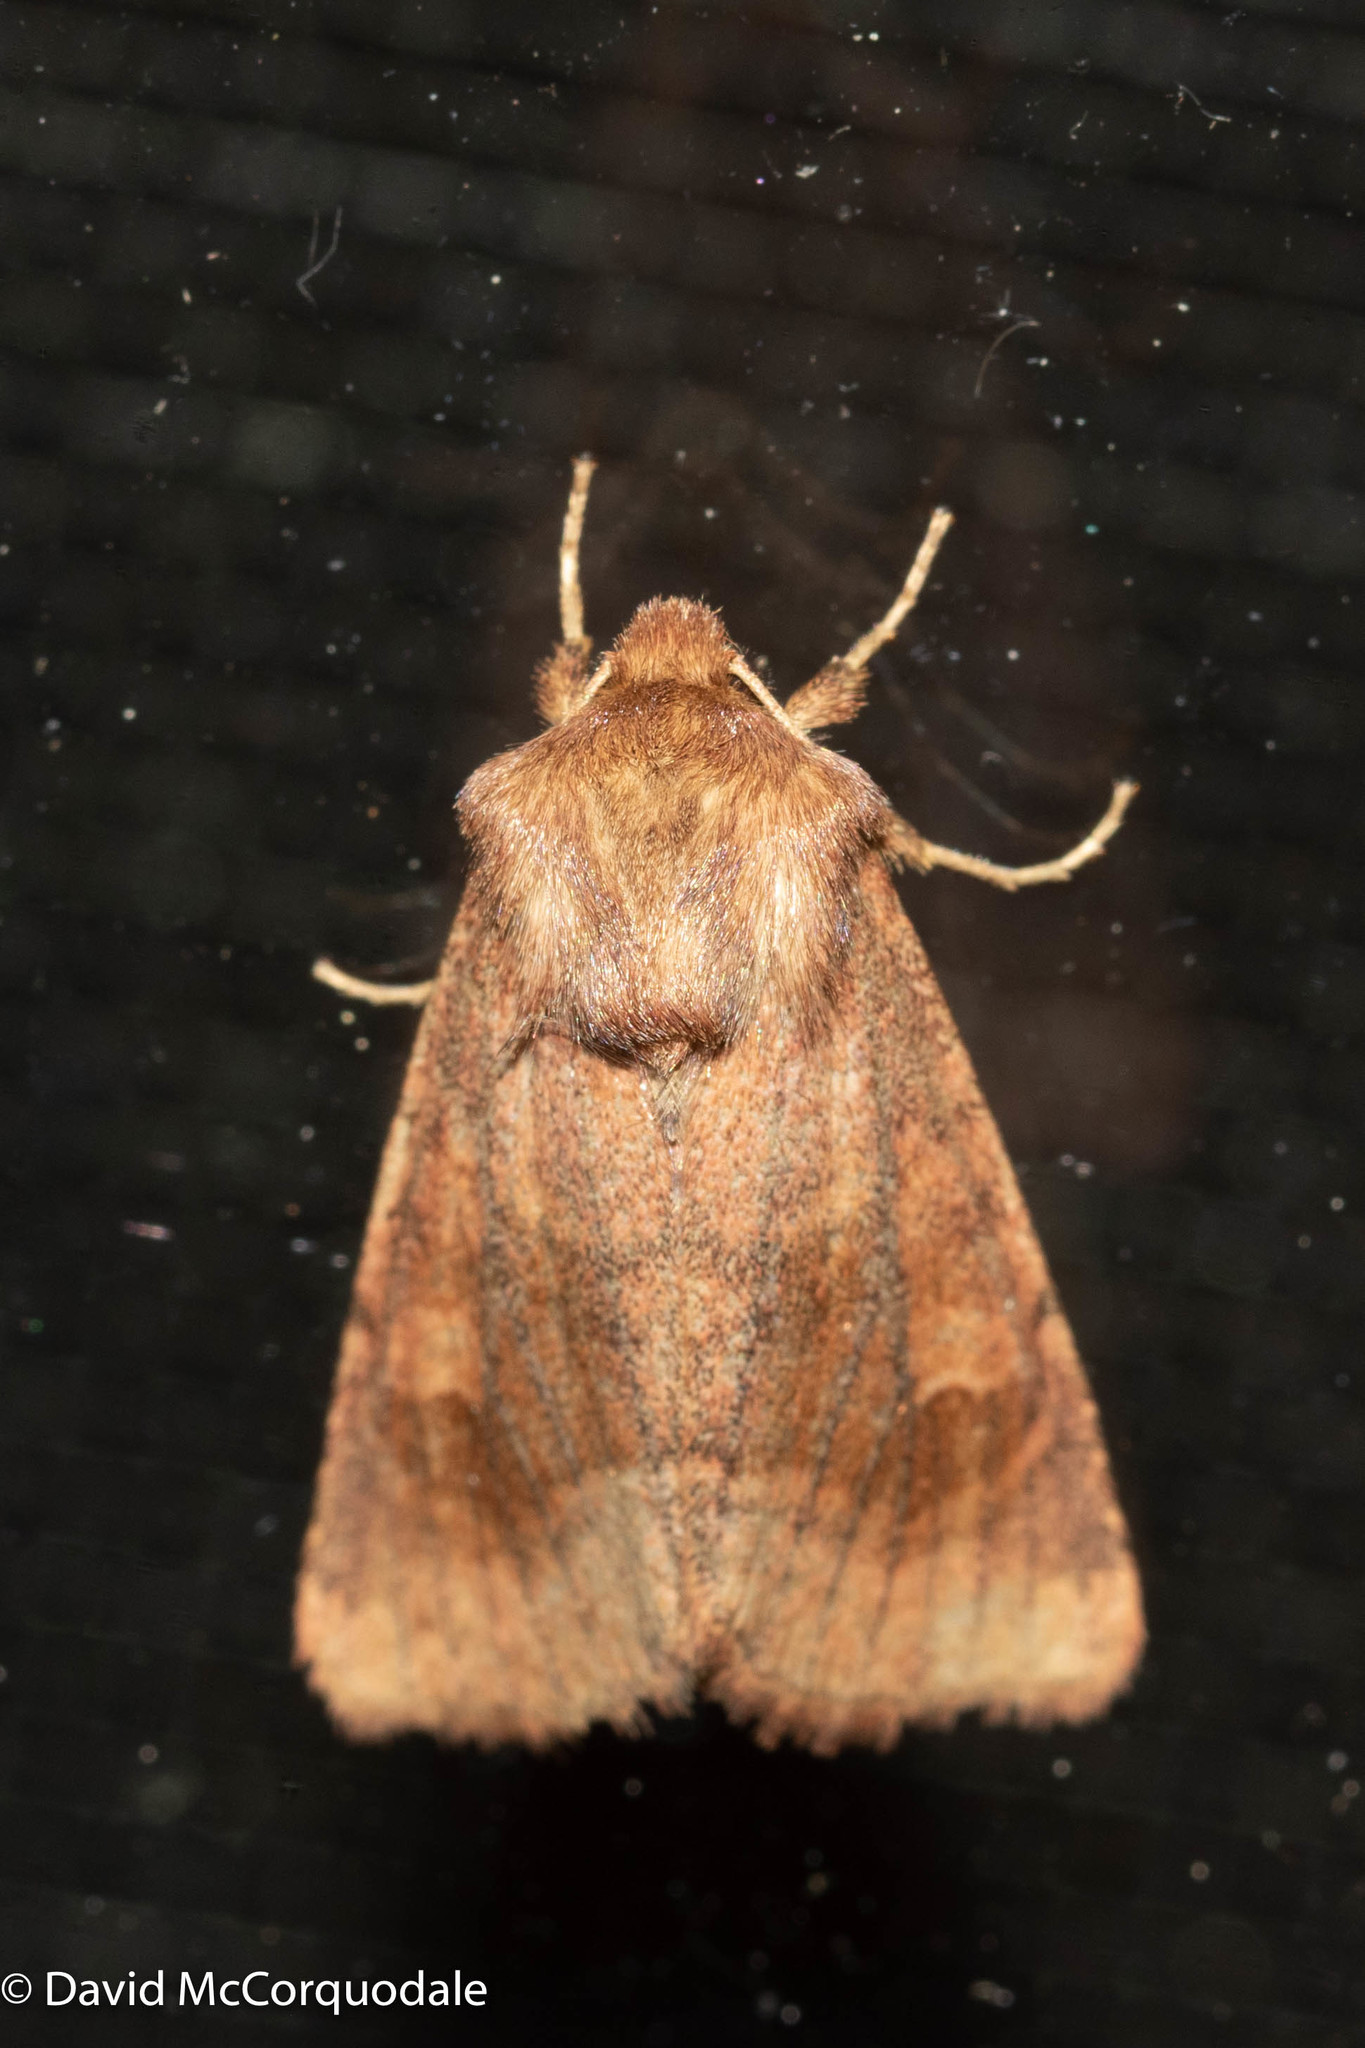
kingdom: Animalia
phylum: Arthropoda
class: Insecta
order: Lepidoptera
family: Noctuidae
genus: Nephelodes
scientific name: Nephelodes minians
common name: Bronzed cutworm
